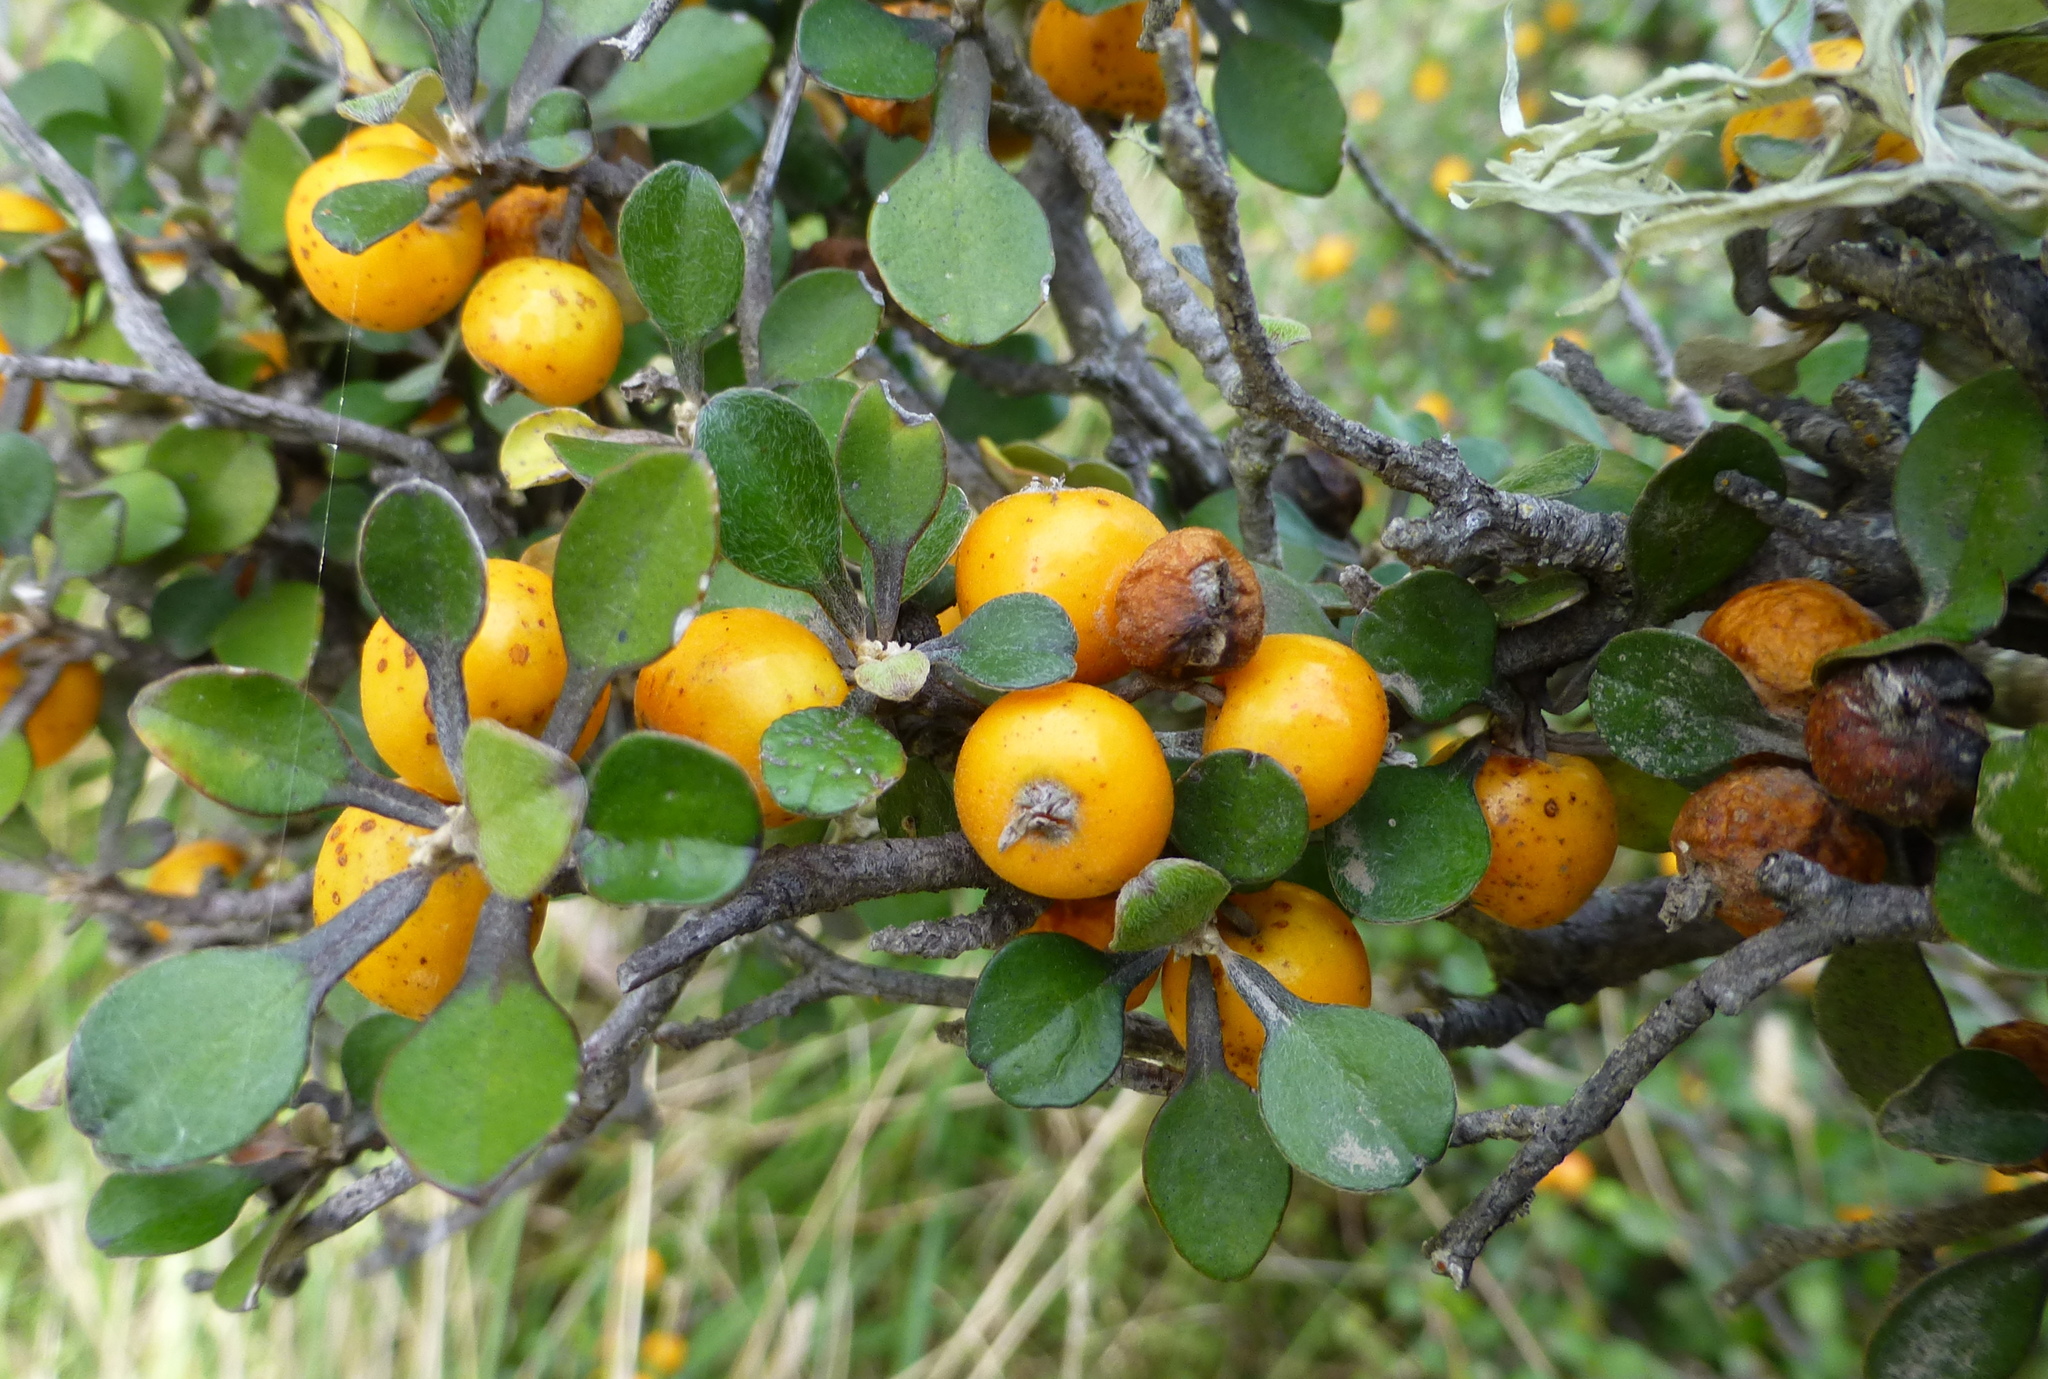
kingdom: Plantae
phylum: Tracheophyta
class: Magnoliopsida
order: Asterales
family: Argophyllaceae
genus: Corokia
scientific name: Corokia cotoneaster
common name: Wire nettingbush
